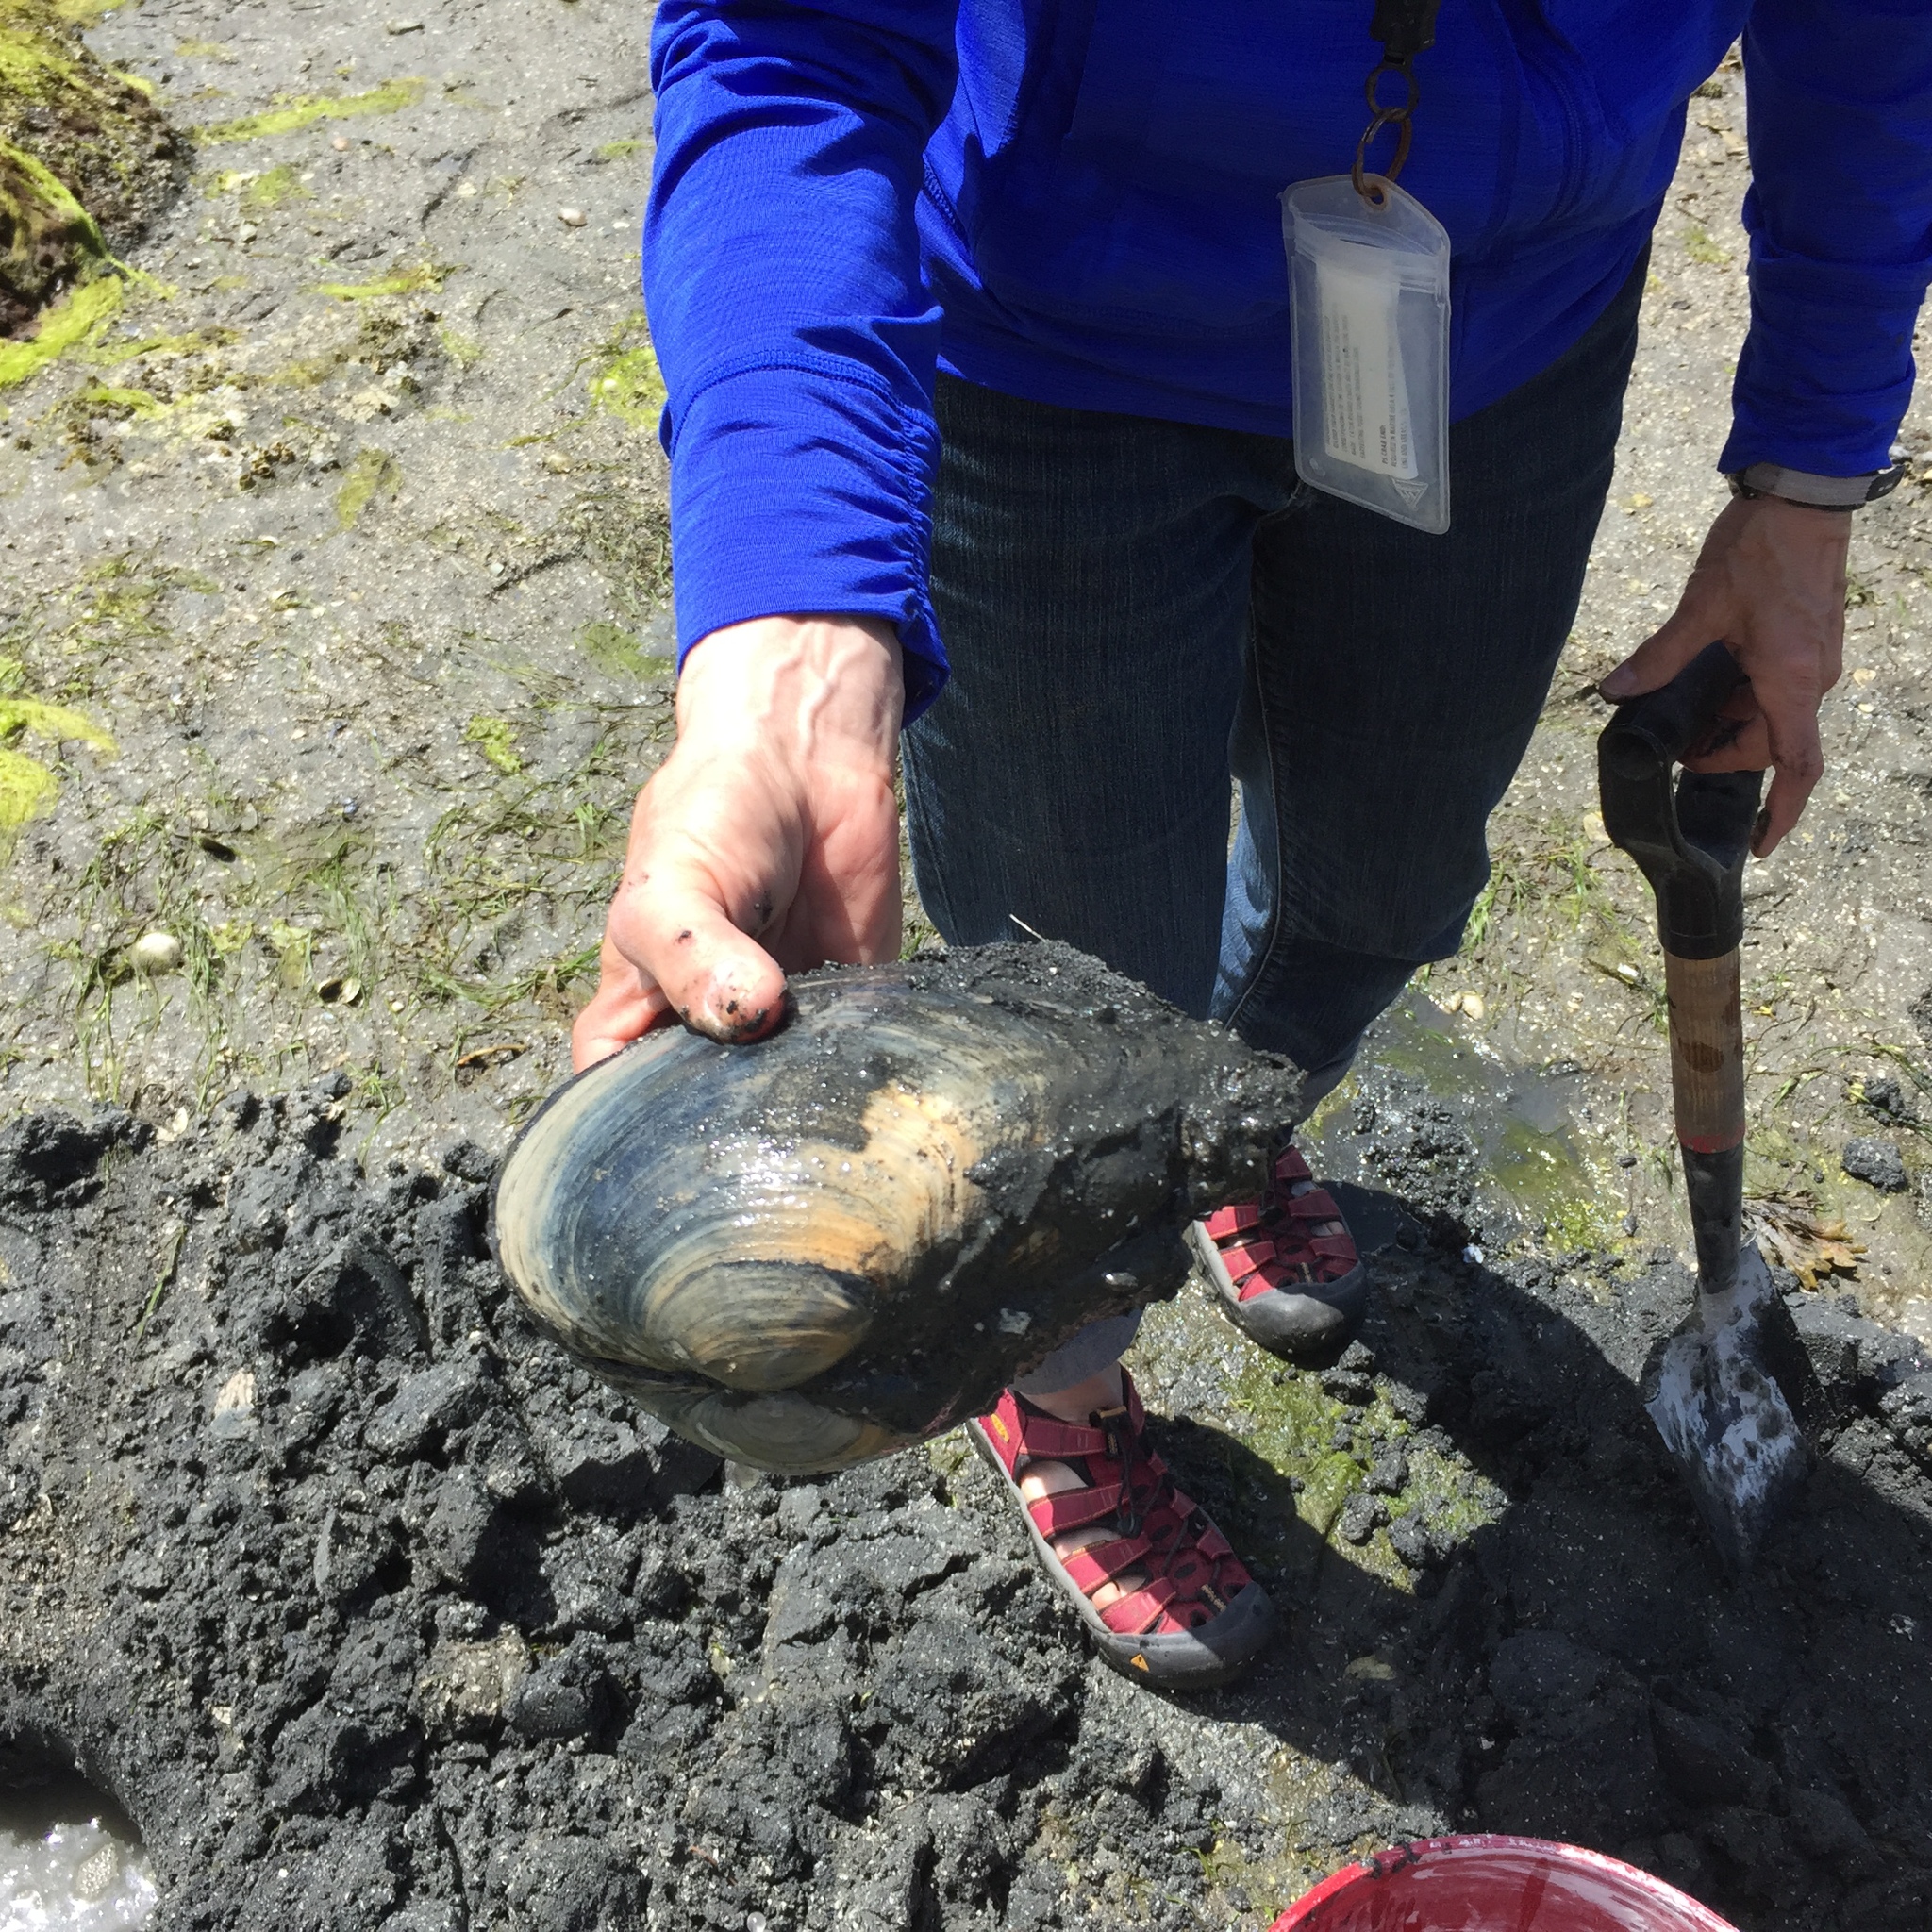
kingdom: Animalia
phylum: Mollusca
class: Bivalvia
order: Venerida
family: Mactridae
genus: Tresus
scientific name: Tresus capax
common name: Fat gaper
